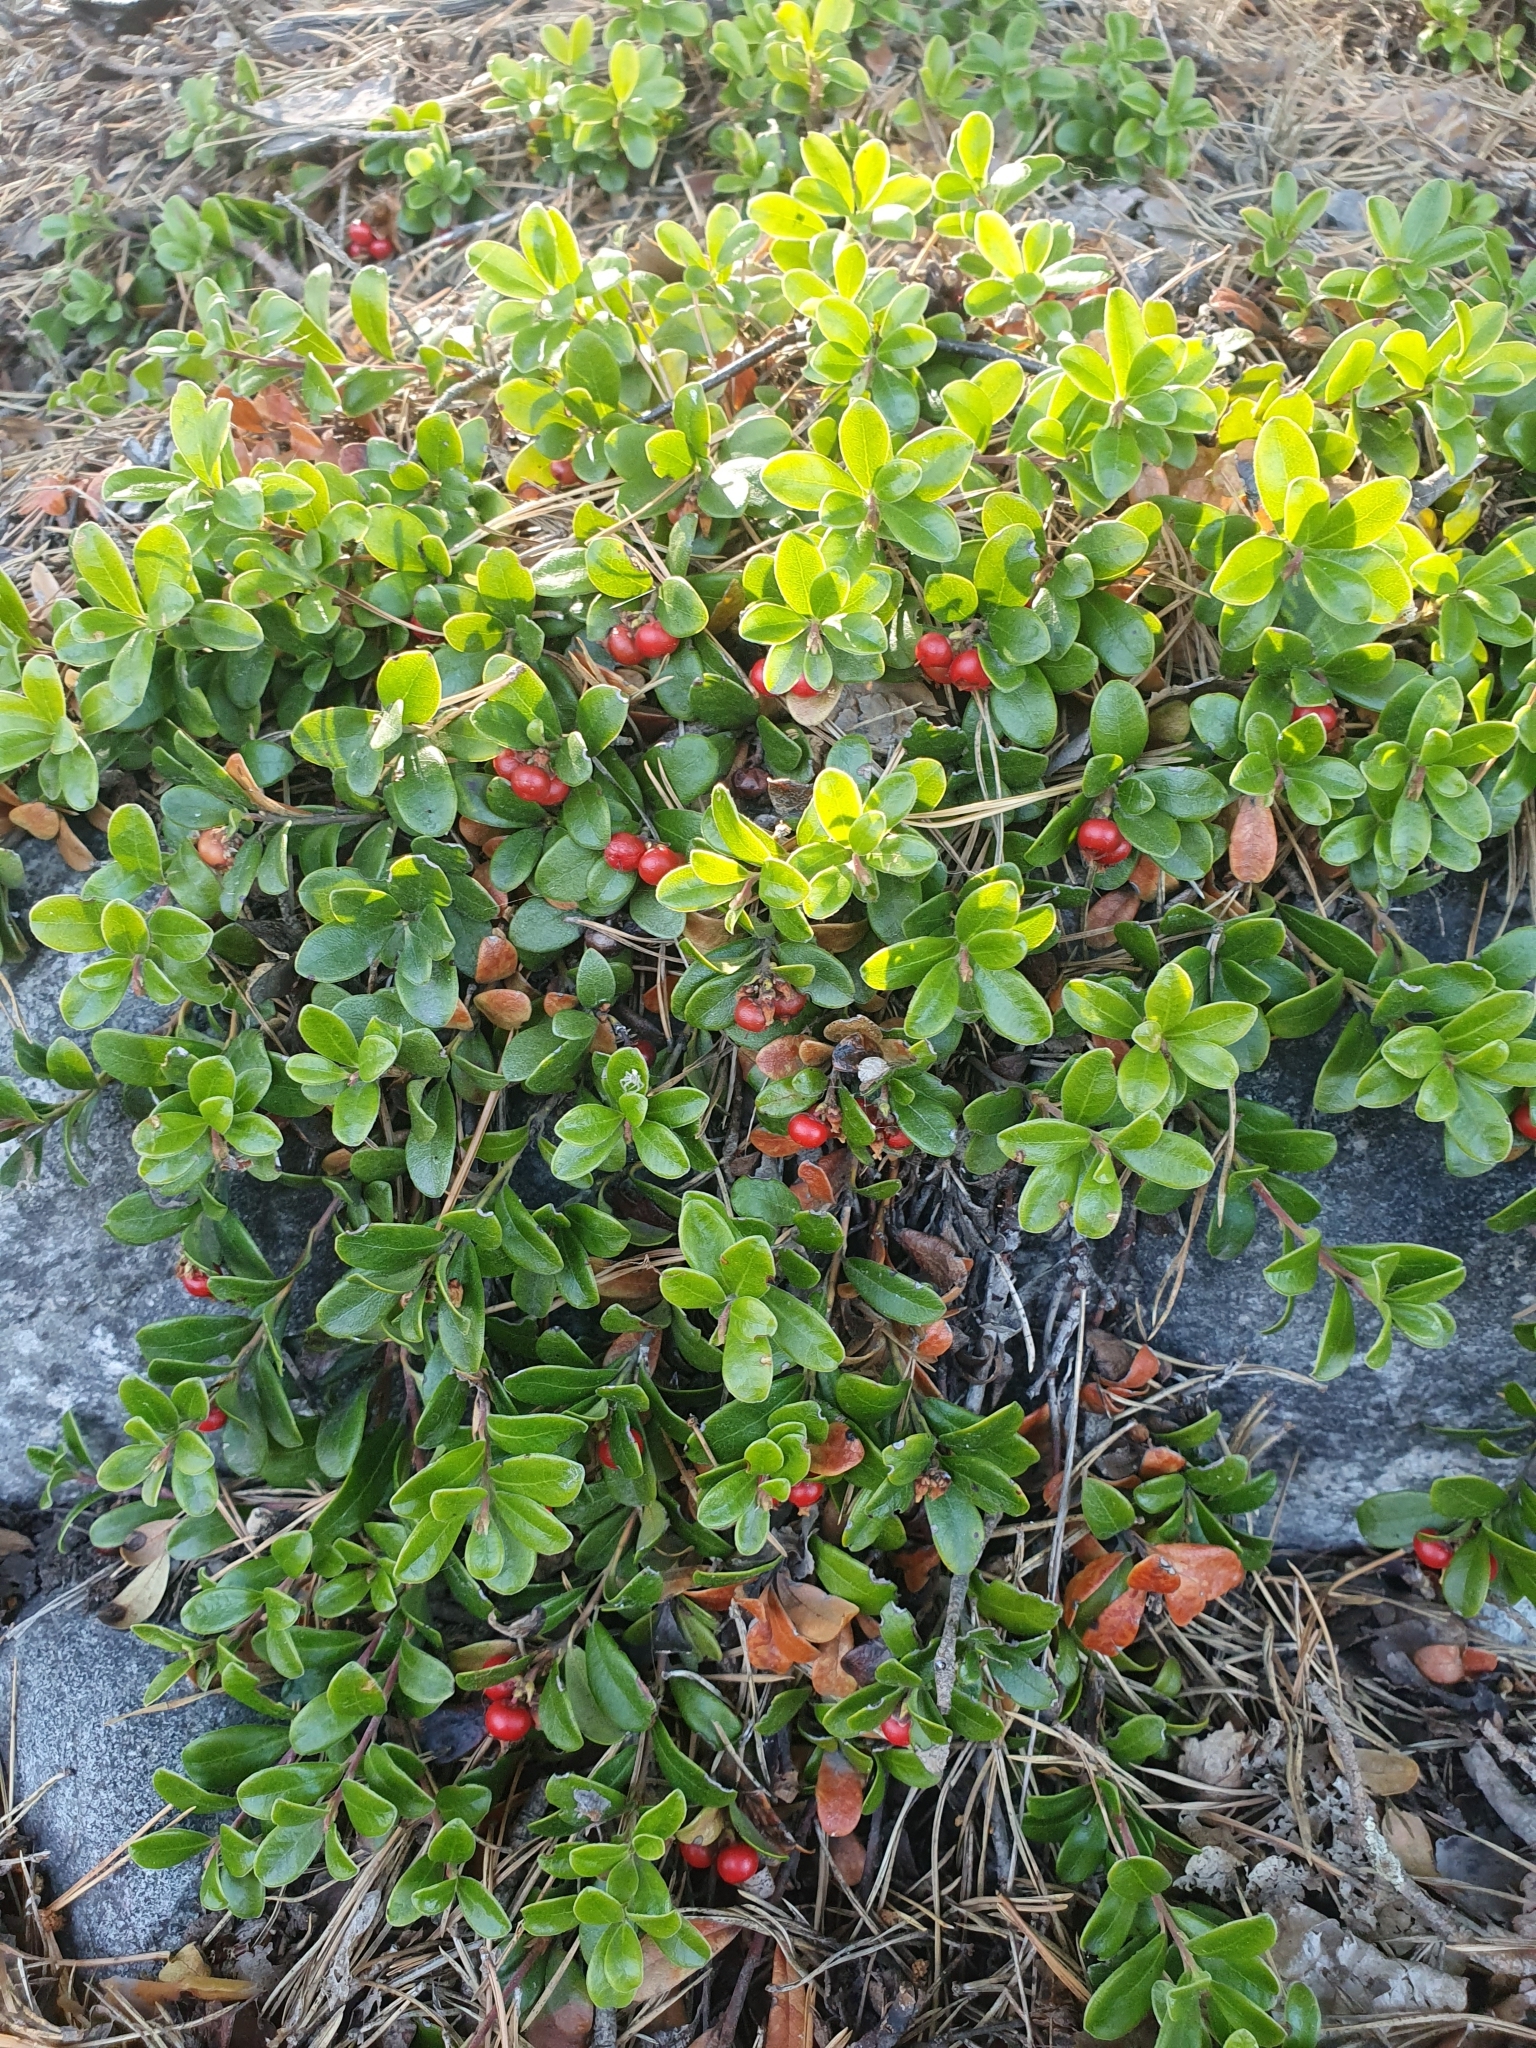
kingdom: Plantae
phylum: Tracheophyta
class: Magnoliopsida
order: Ericales
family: Ericaceae
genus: Arctostaphylos
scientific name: Arctostaphylos uva-ursi
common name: Bearberry
